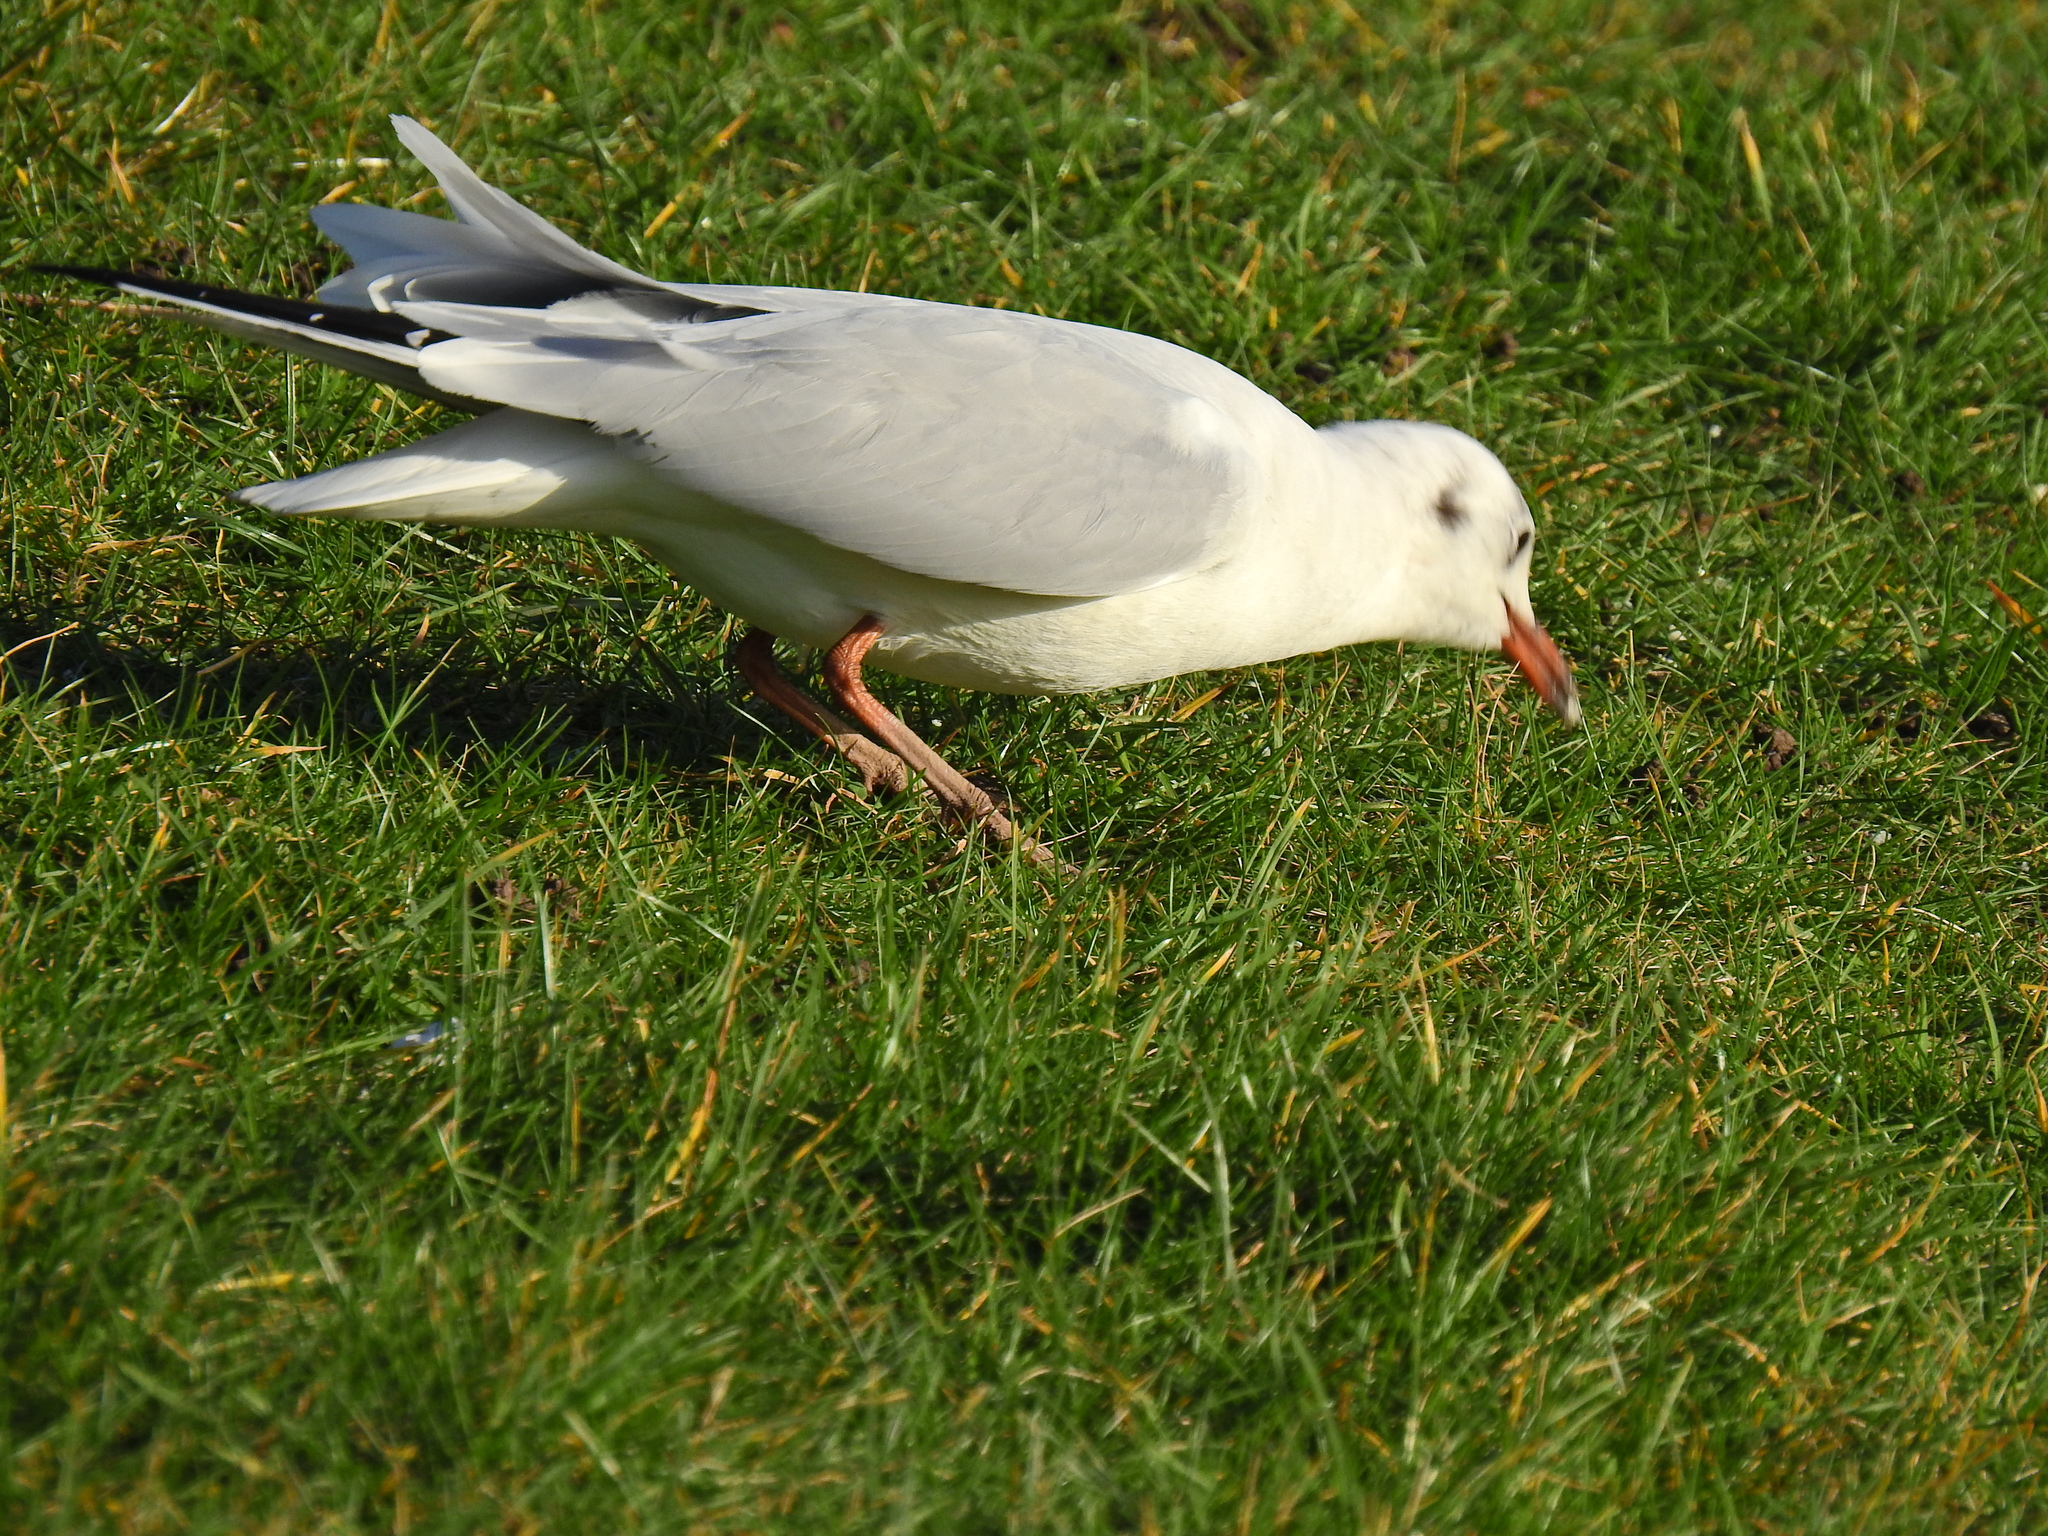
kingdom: Animalia
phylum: Chordata
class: Aves
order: Charadriiformes
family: Laridae
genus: Chroicocephalus
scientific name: Chroicocephalus ridibundus
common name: Black-headed gull
